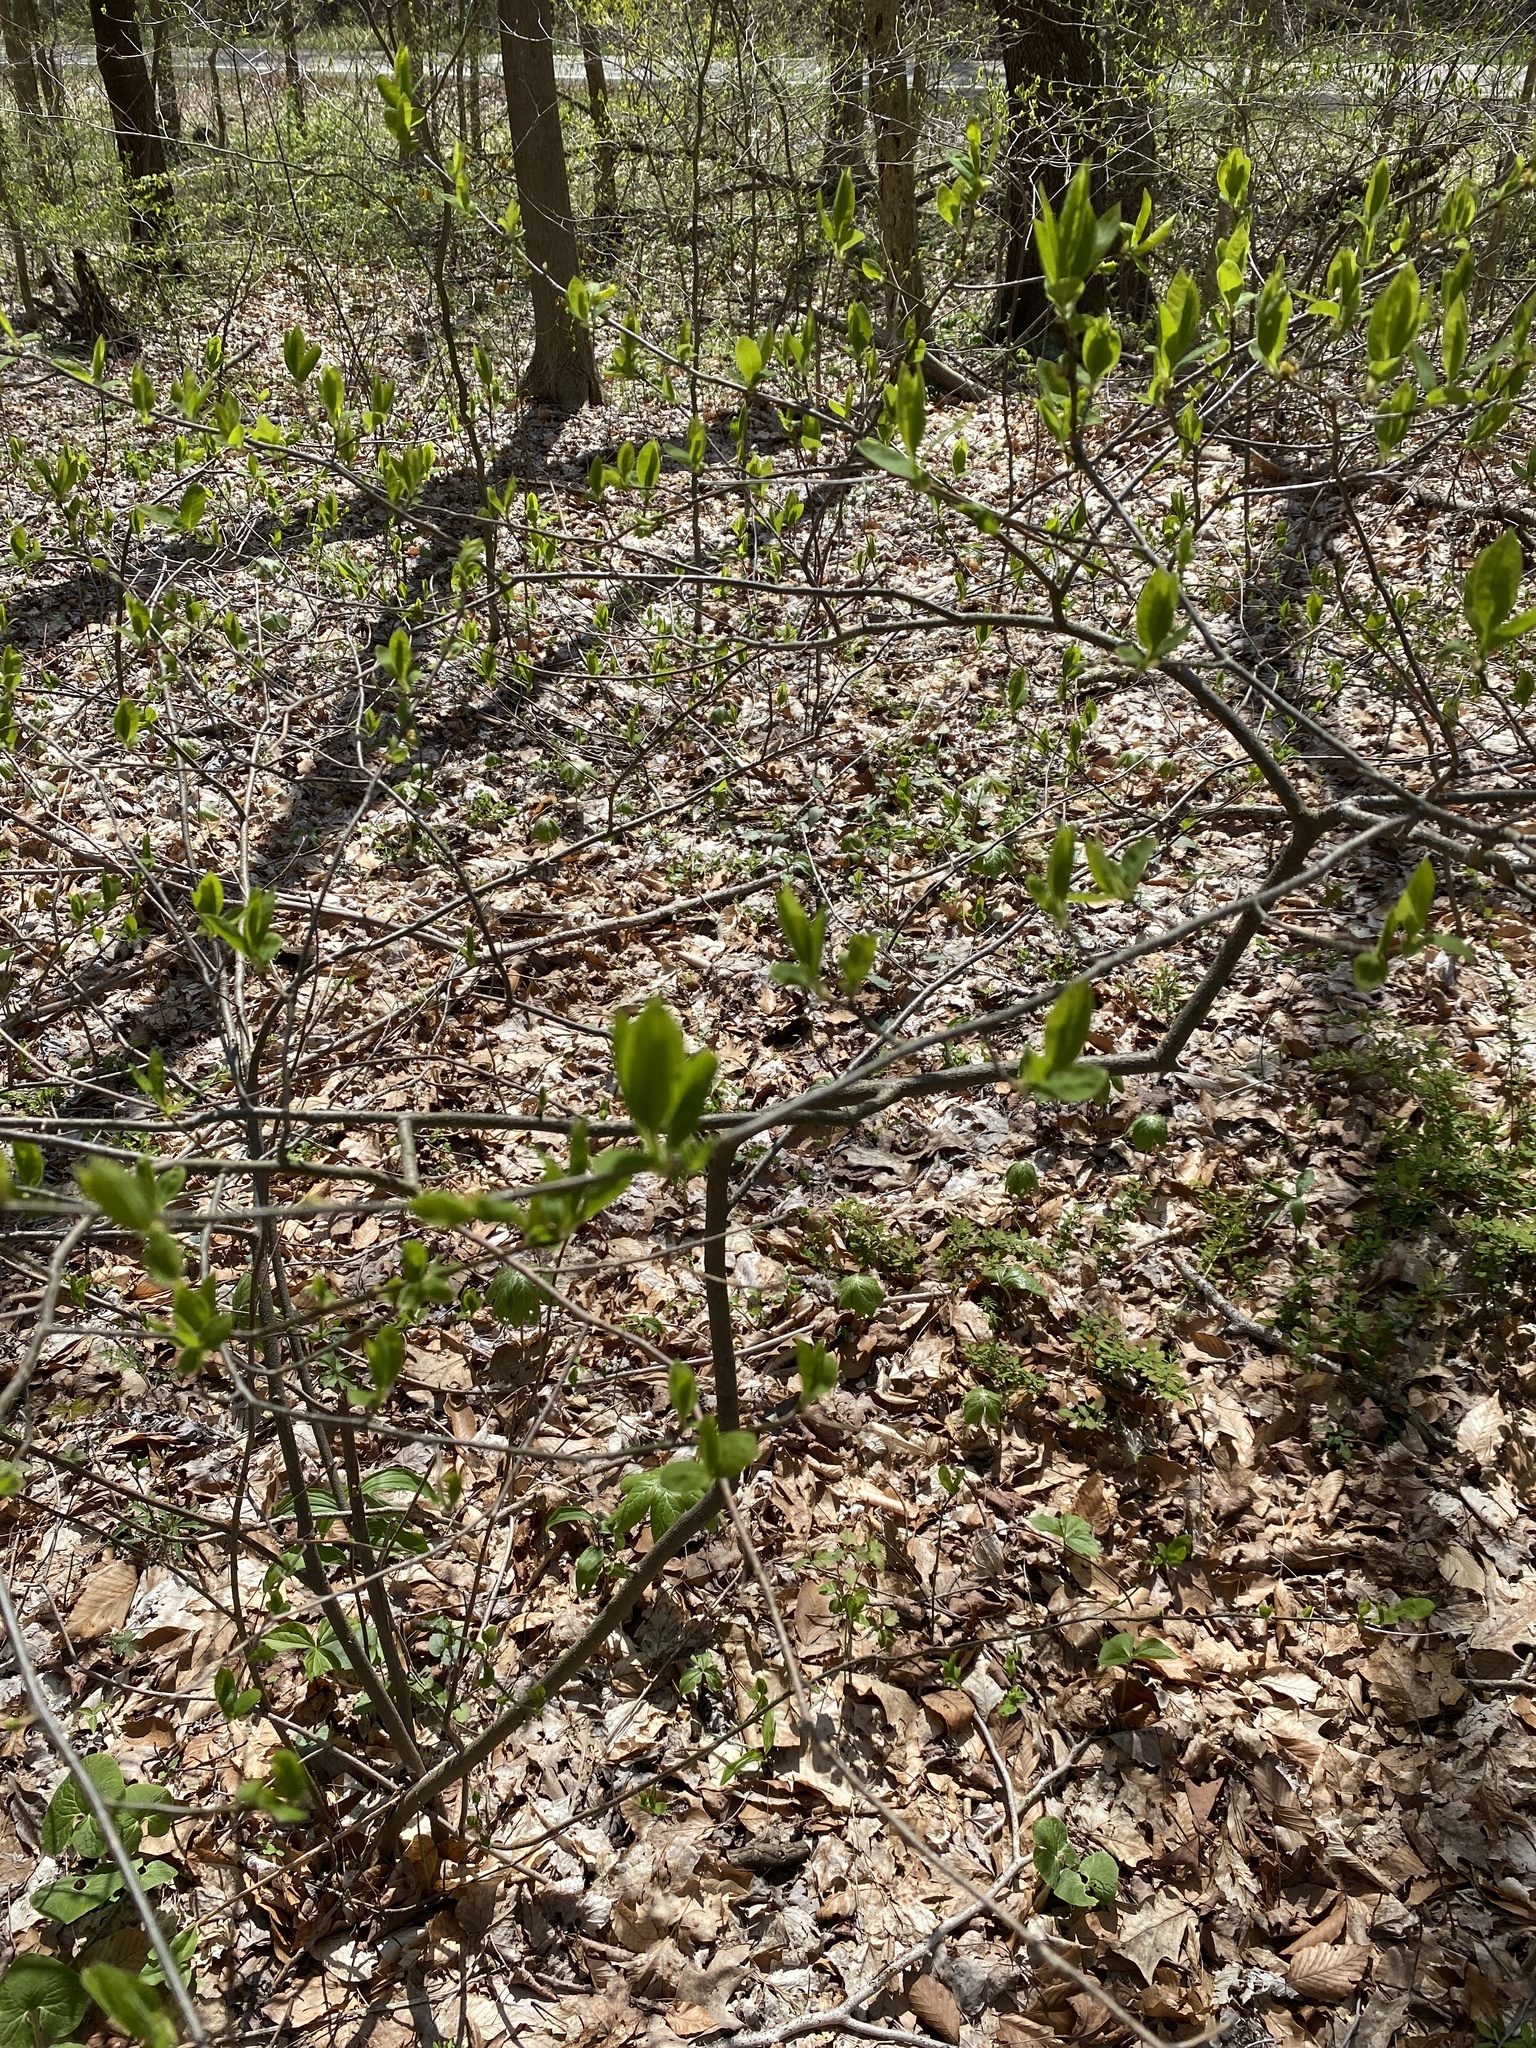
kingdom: Plantae
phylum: Tracheophyta
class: Magnoliopsida
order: Laurales
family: Lauraceae
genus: Lindera
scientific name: Lindera benzoin
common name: Spicebush
